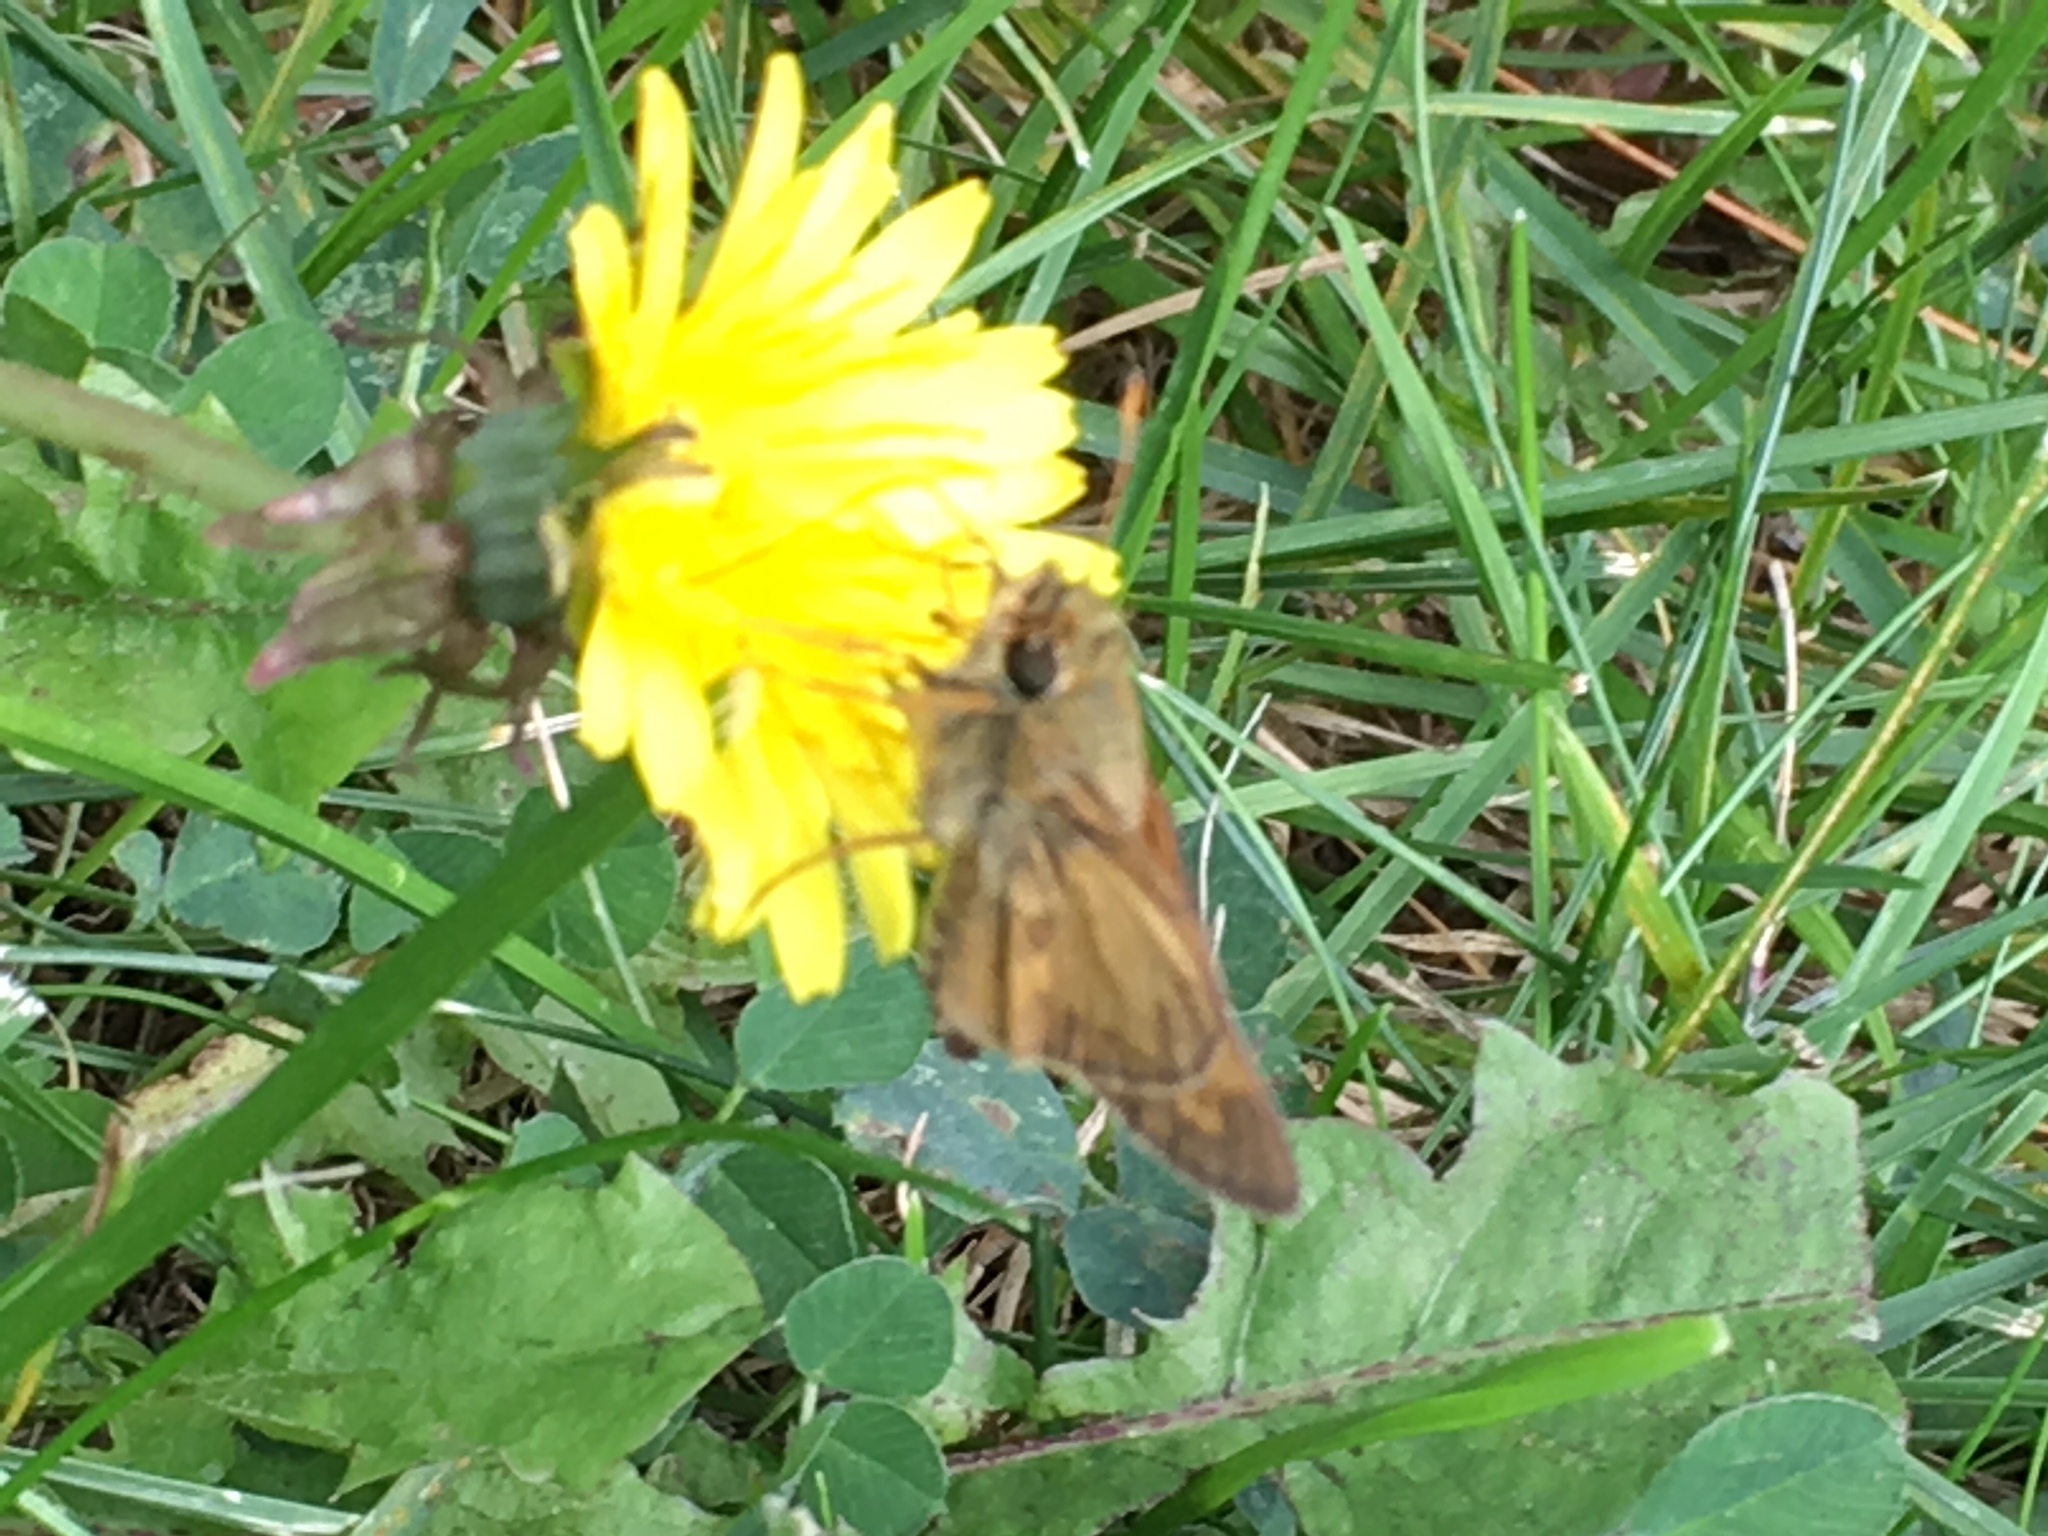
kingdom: Animalia
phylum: Arthropoda
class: Insecta
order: Lepidoptera
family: Hesperiidae
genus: Atalopedes
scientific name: Atalopedes
